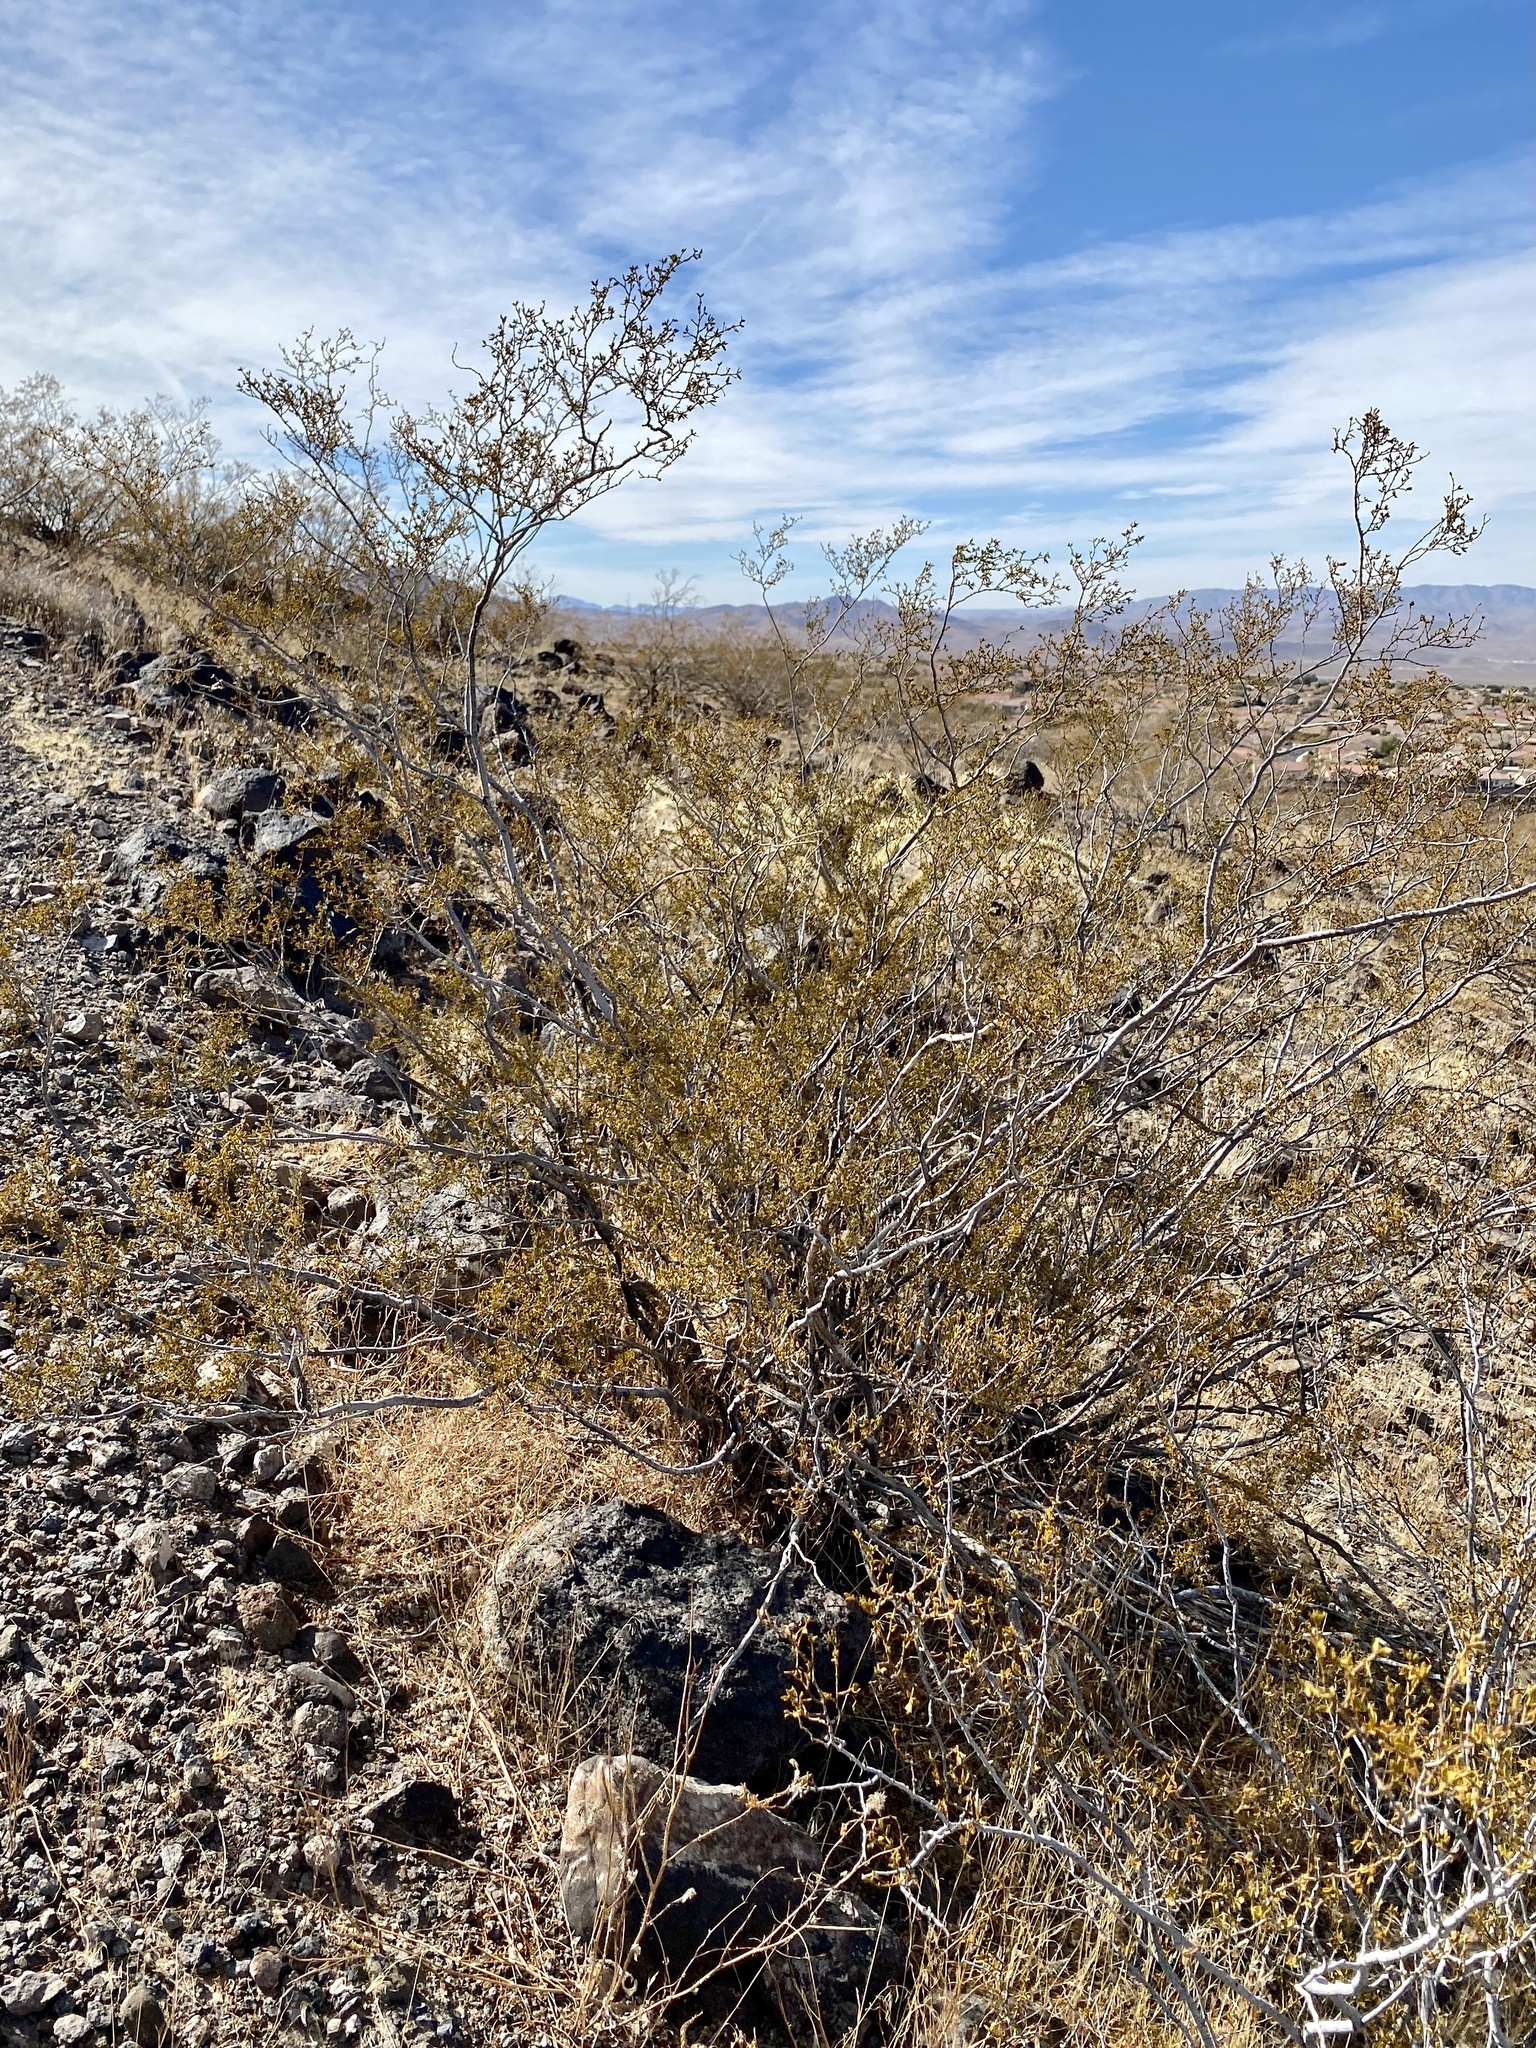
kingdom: Plantae
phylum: Tracheophyta
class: Magnoliopsida
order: Zygophyllales
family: Zygophyllaceae
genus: Larrea
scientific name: Larrea tridentata
